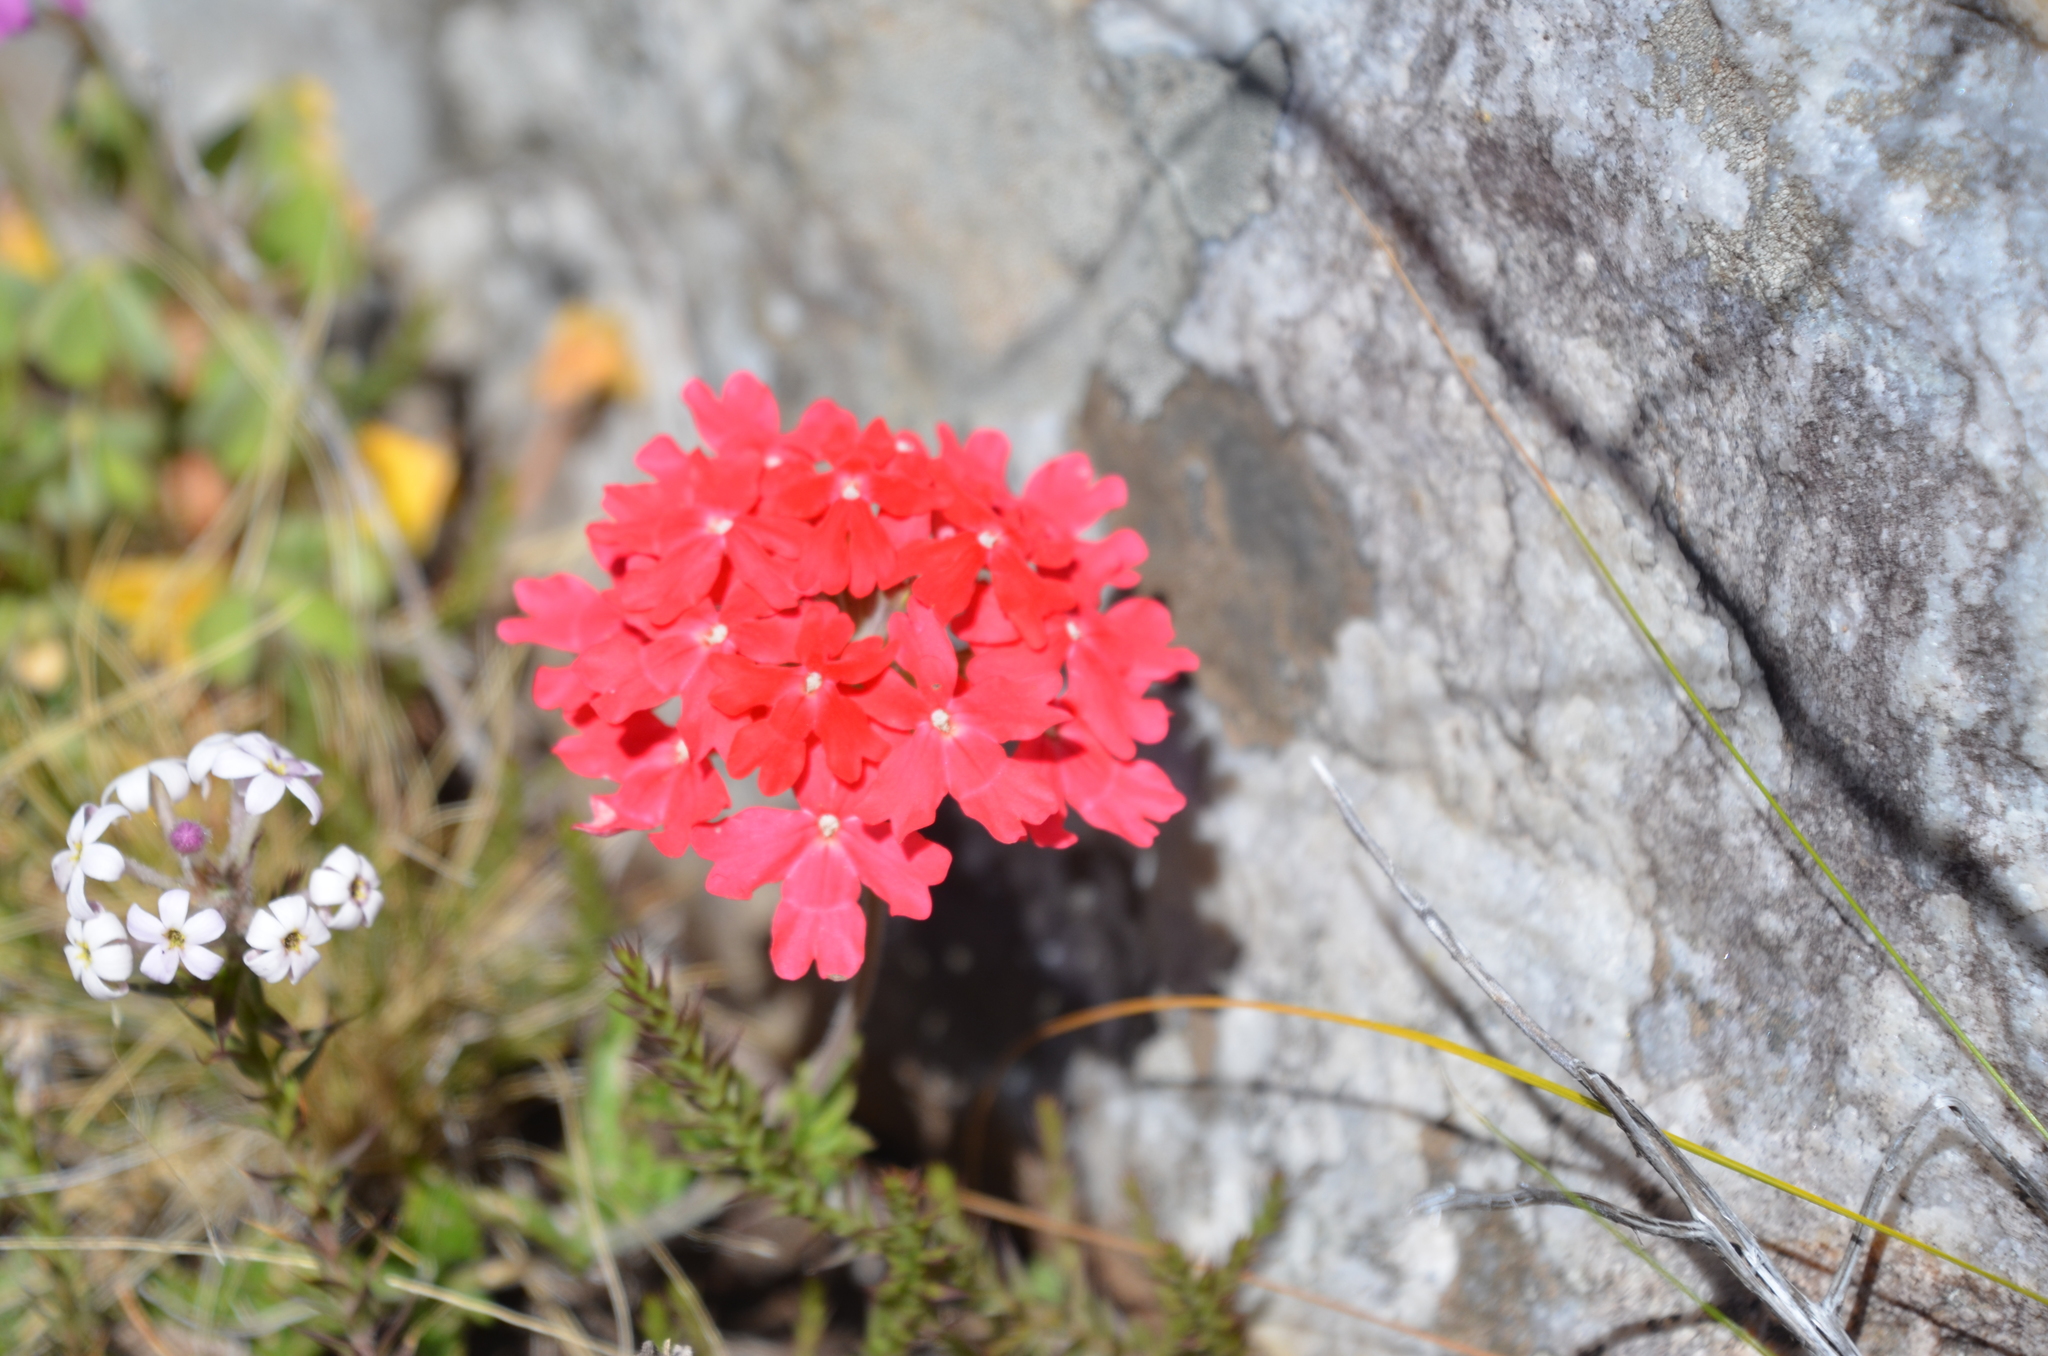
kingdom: Plantae
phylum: Tracheophyta
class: Magnoliopsida
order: Lamiales
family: Verbenaceae
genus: Verbena
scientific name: Verbena peruviana
